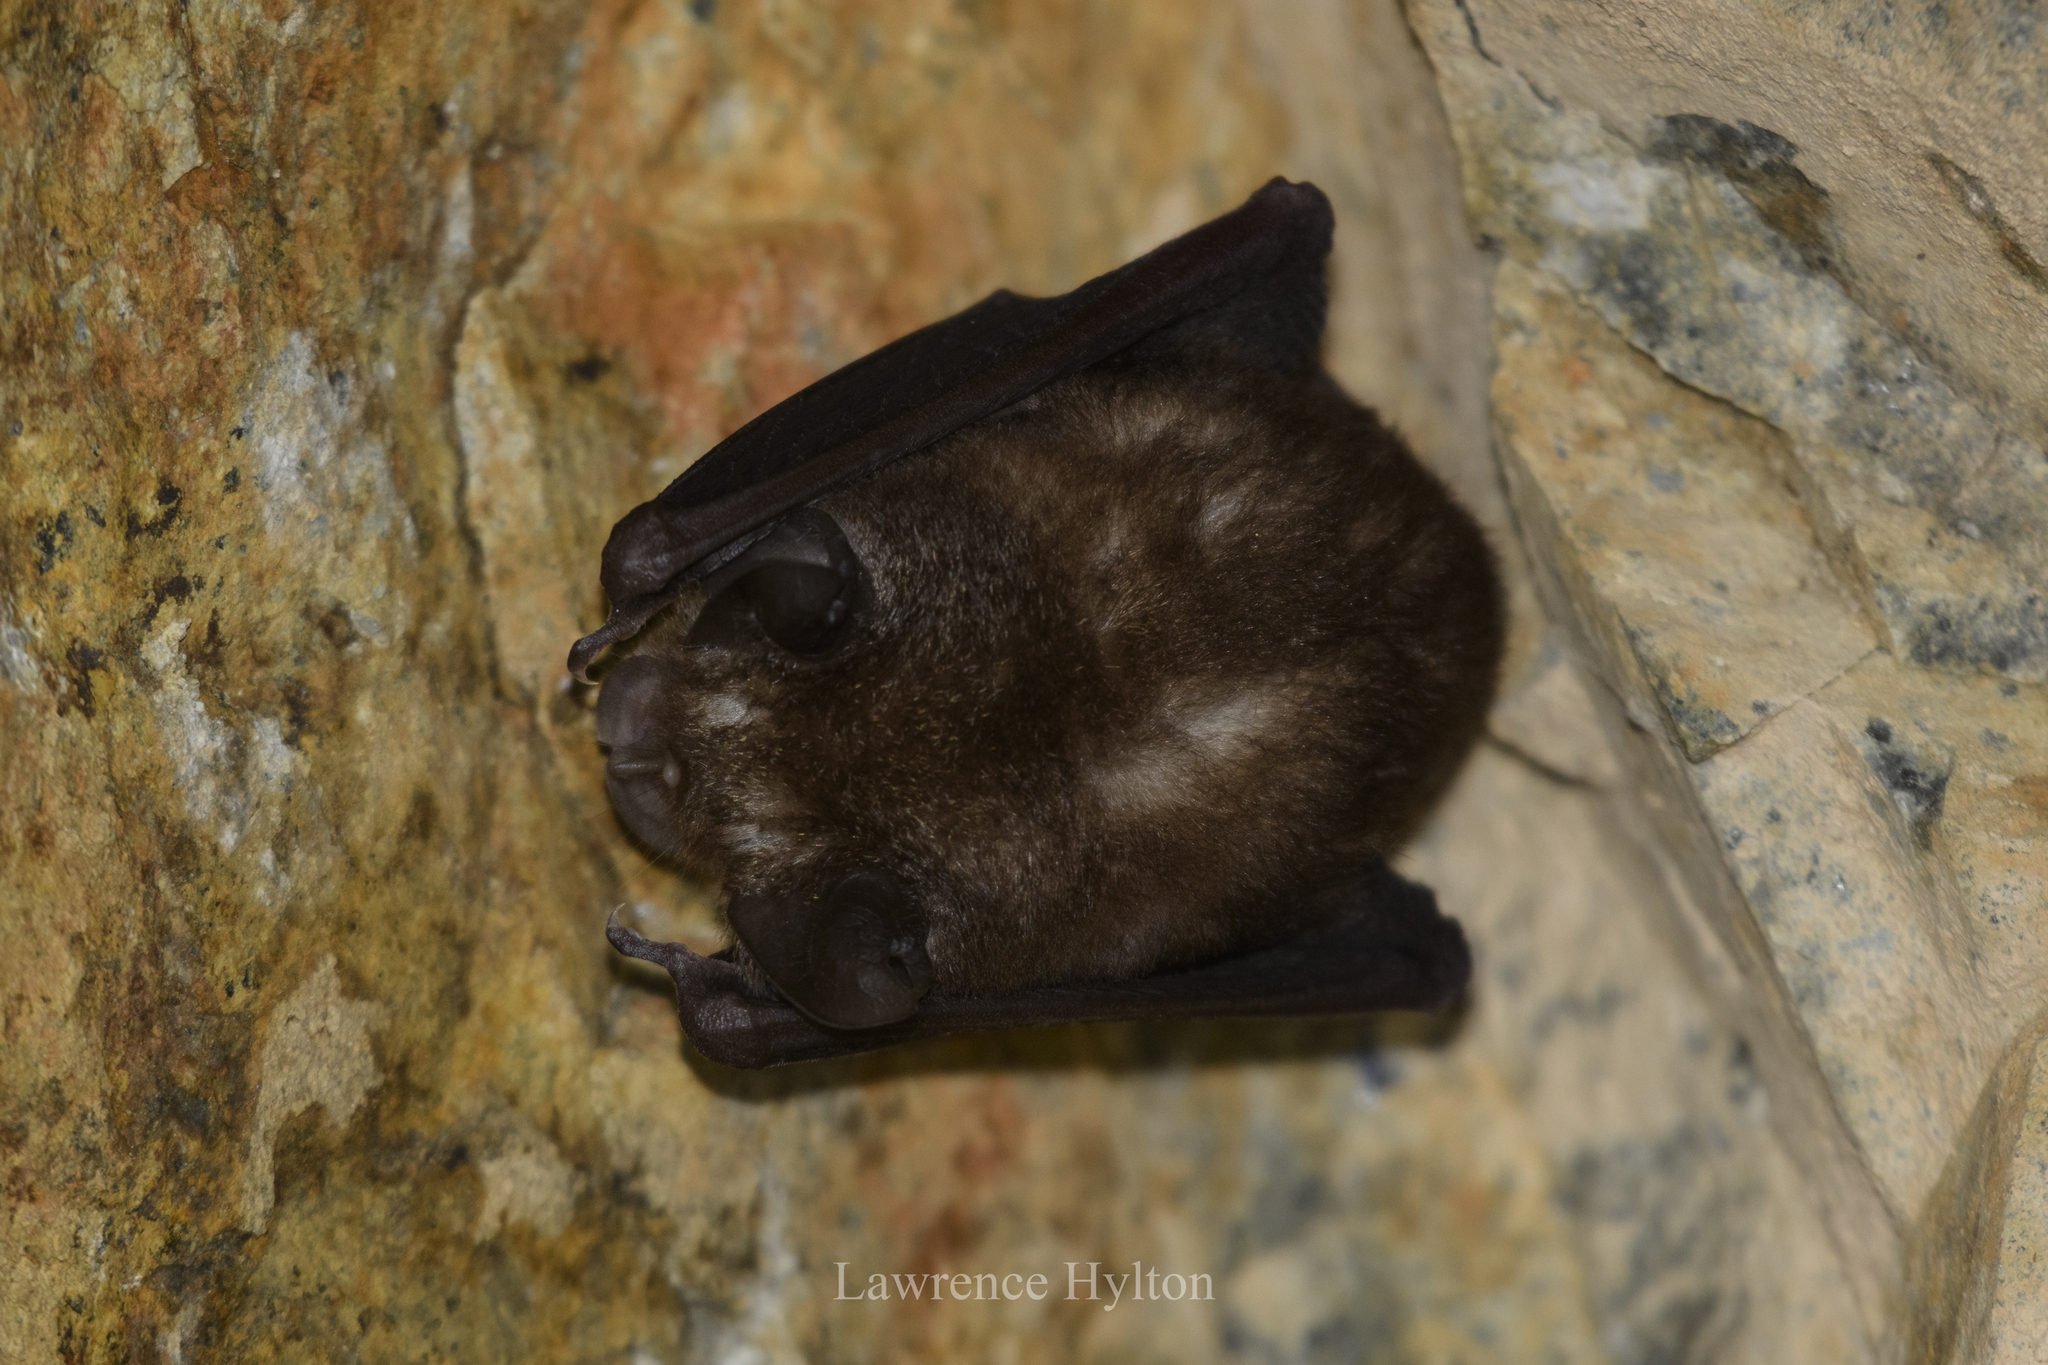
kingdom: Animalia
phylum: Chordata
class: Mammalia
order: Chiroptera
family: Rhinolophidae
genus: Rhinolophus
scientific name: Rhinolophus pusillus
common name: Least horseshoe bat
